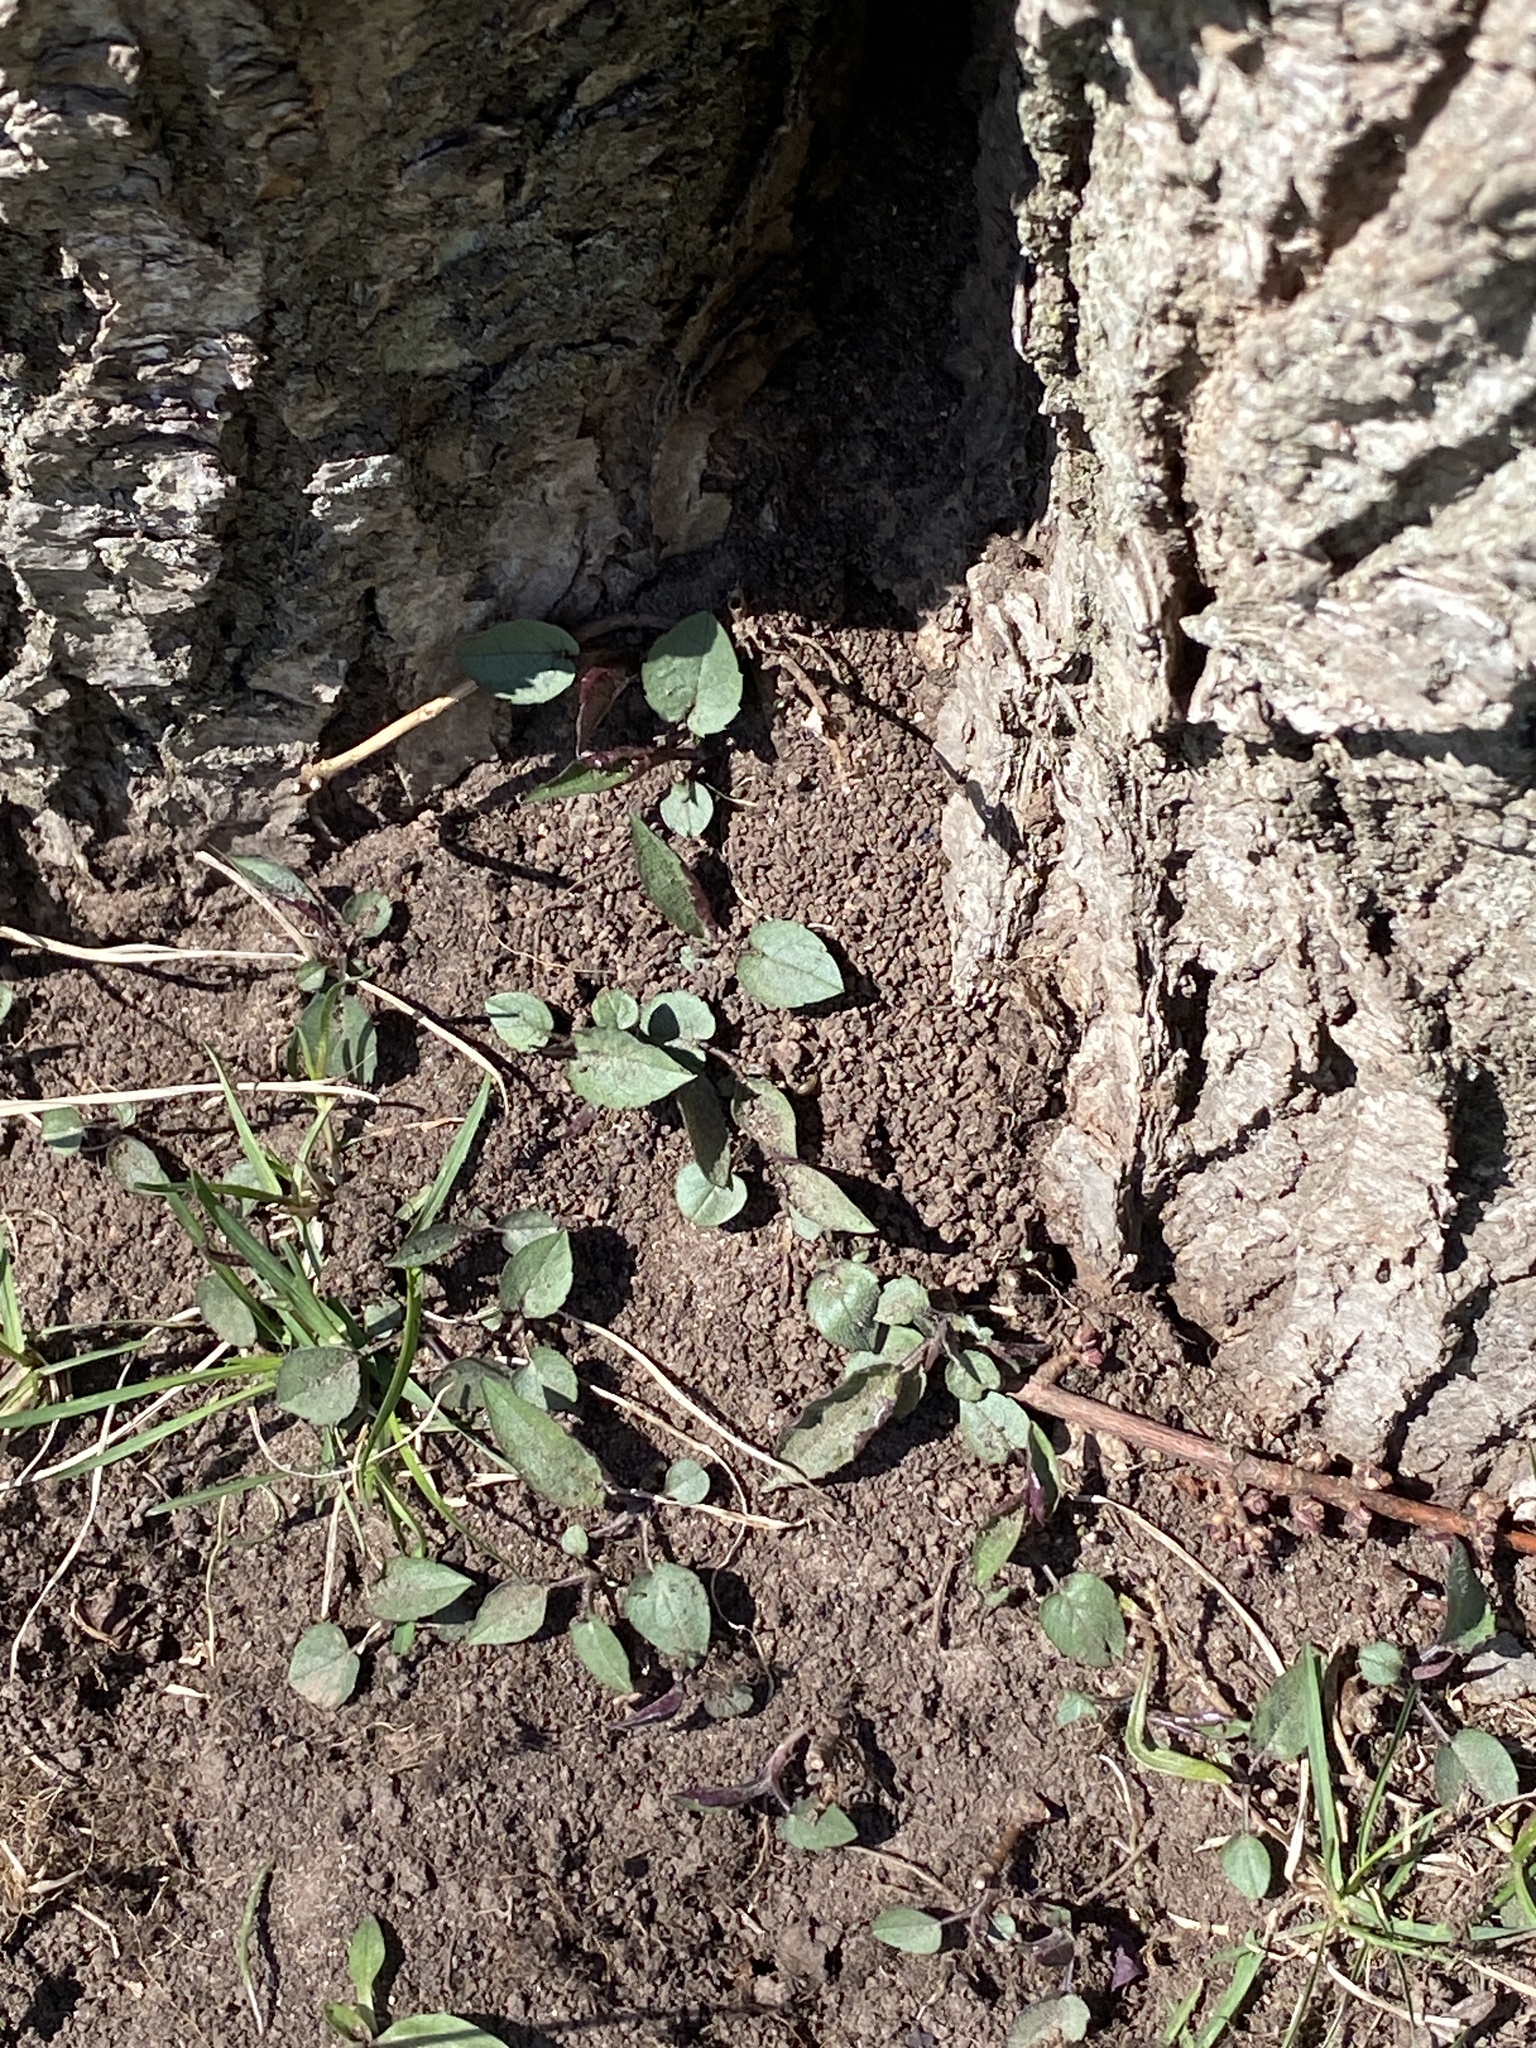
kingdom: Plantae
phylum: Tracheophyta
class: Magnoliopsida
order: Asterales
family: Asteraceae
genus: Eurybia
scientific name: Eurybia divaricata
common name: White wood aster
